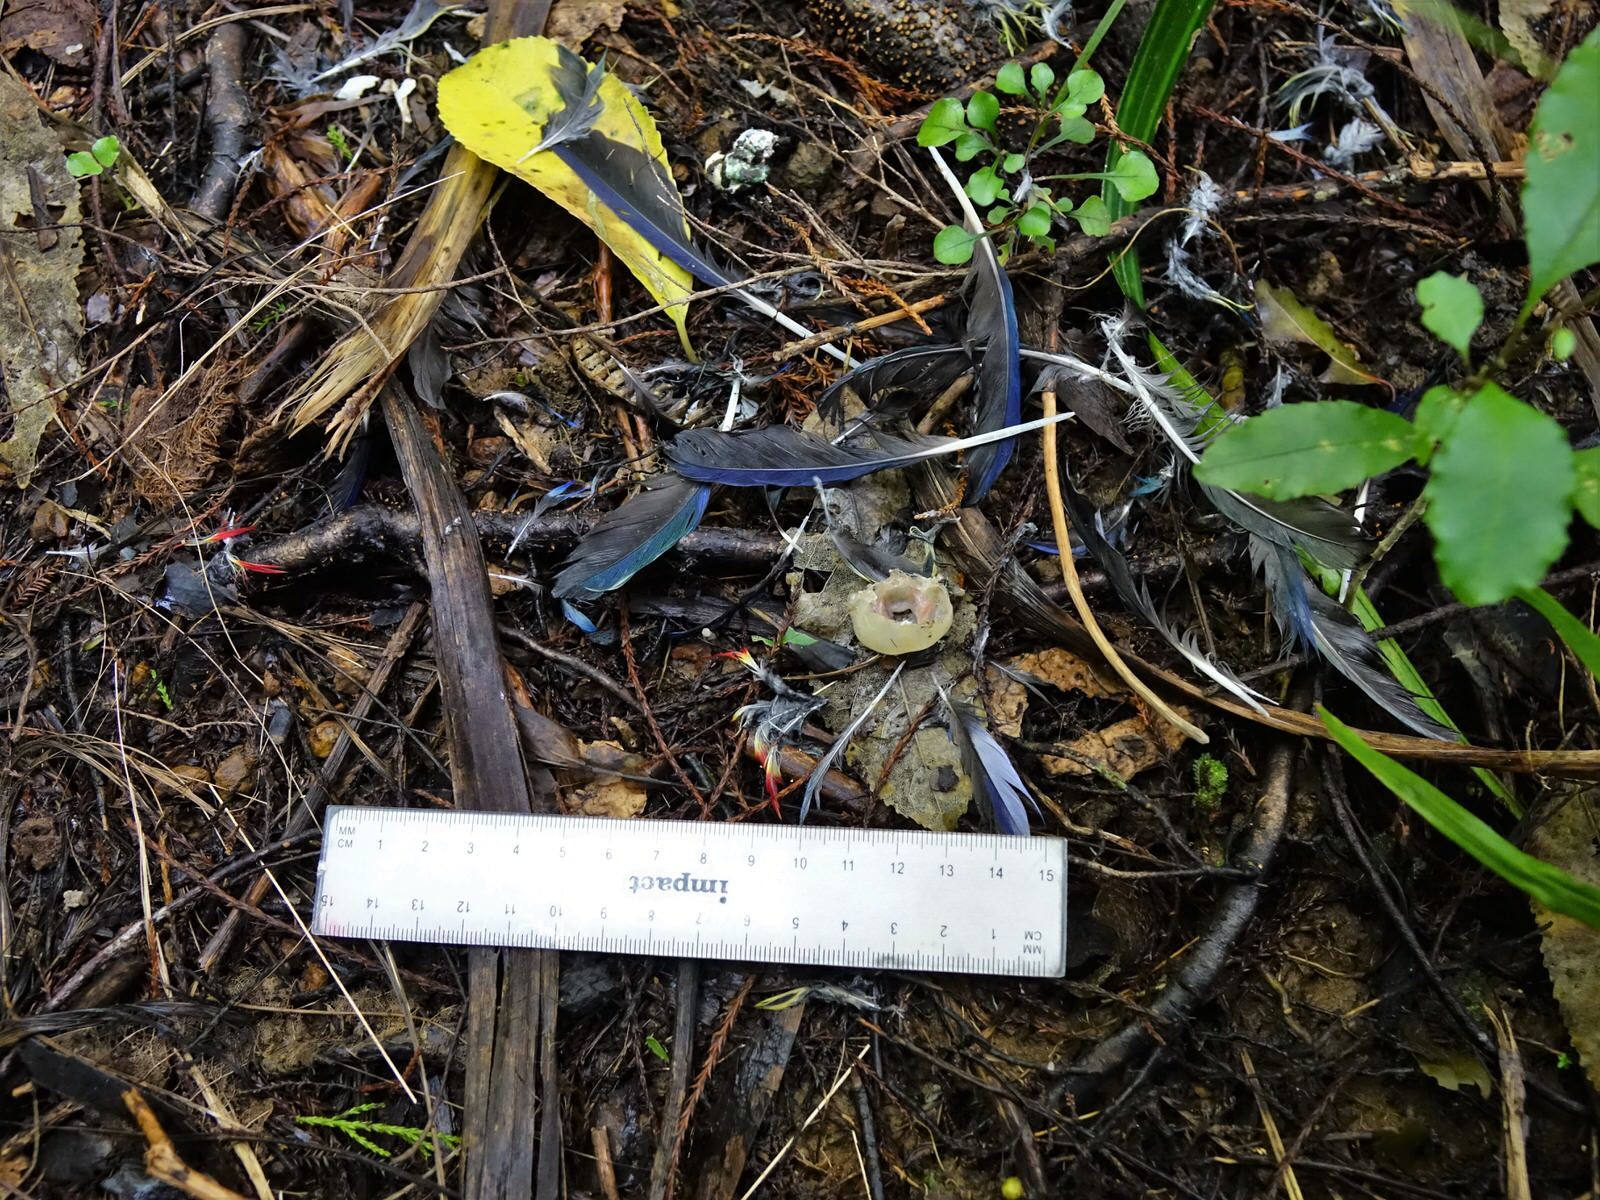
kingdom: Animalia
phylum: Chordata
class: Aves
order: Psittaciformes
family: Psittacidae
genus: Platycercus
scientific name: Platycercus eximius
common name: Eastern rosella
